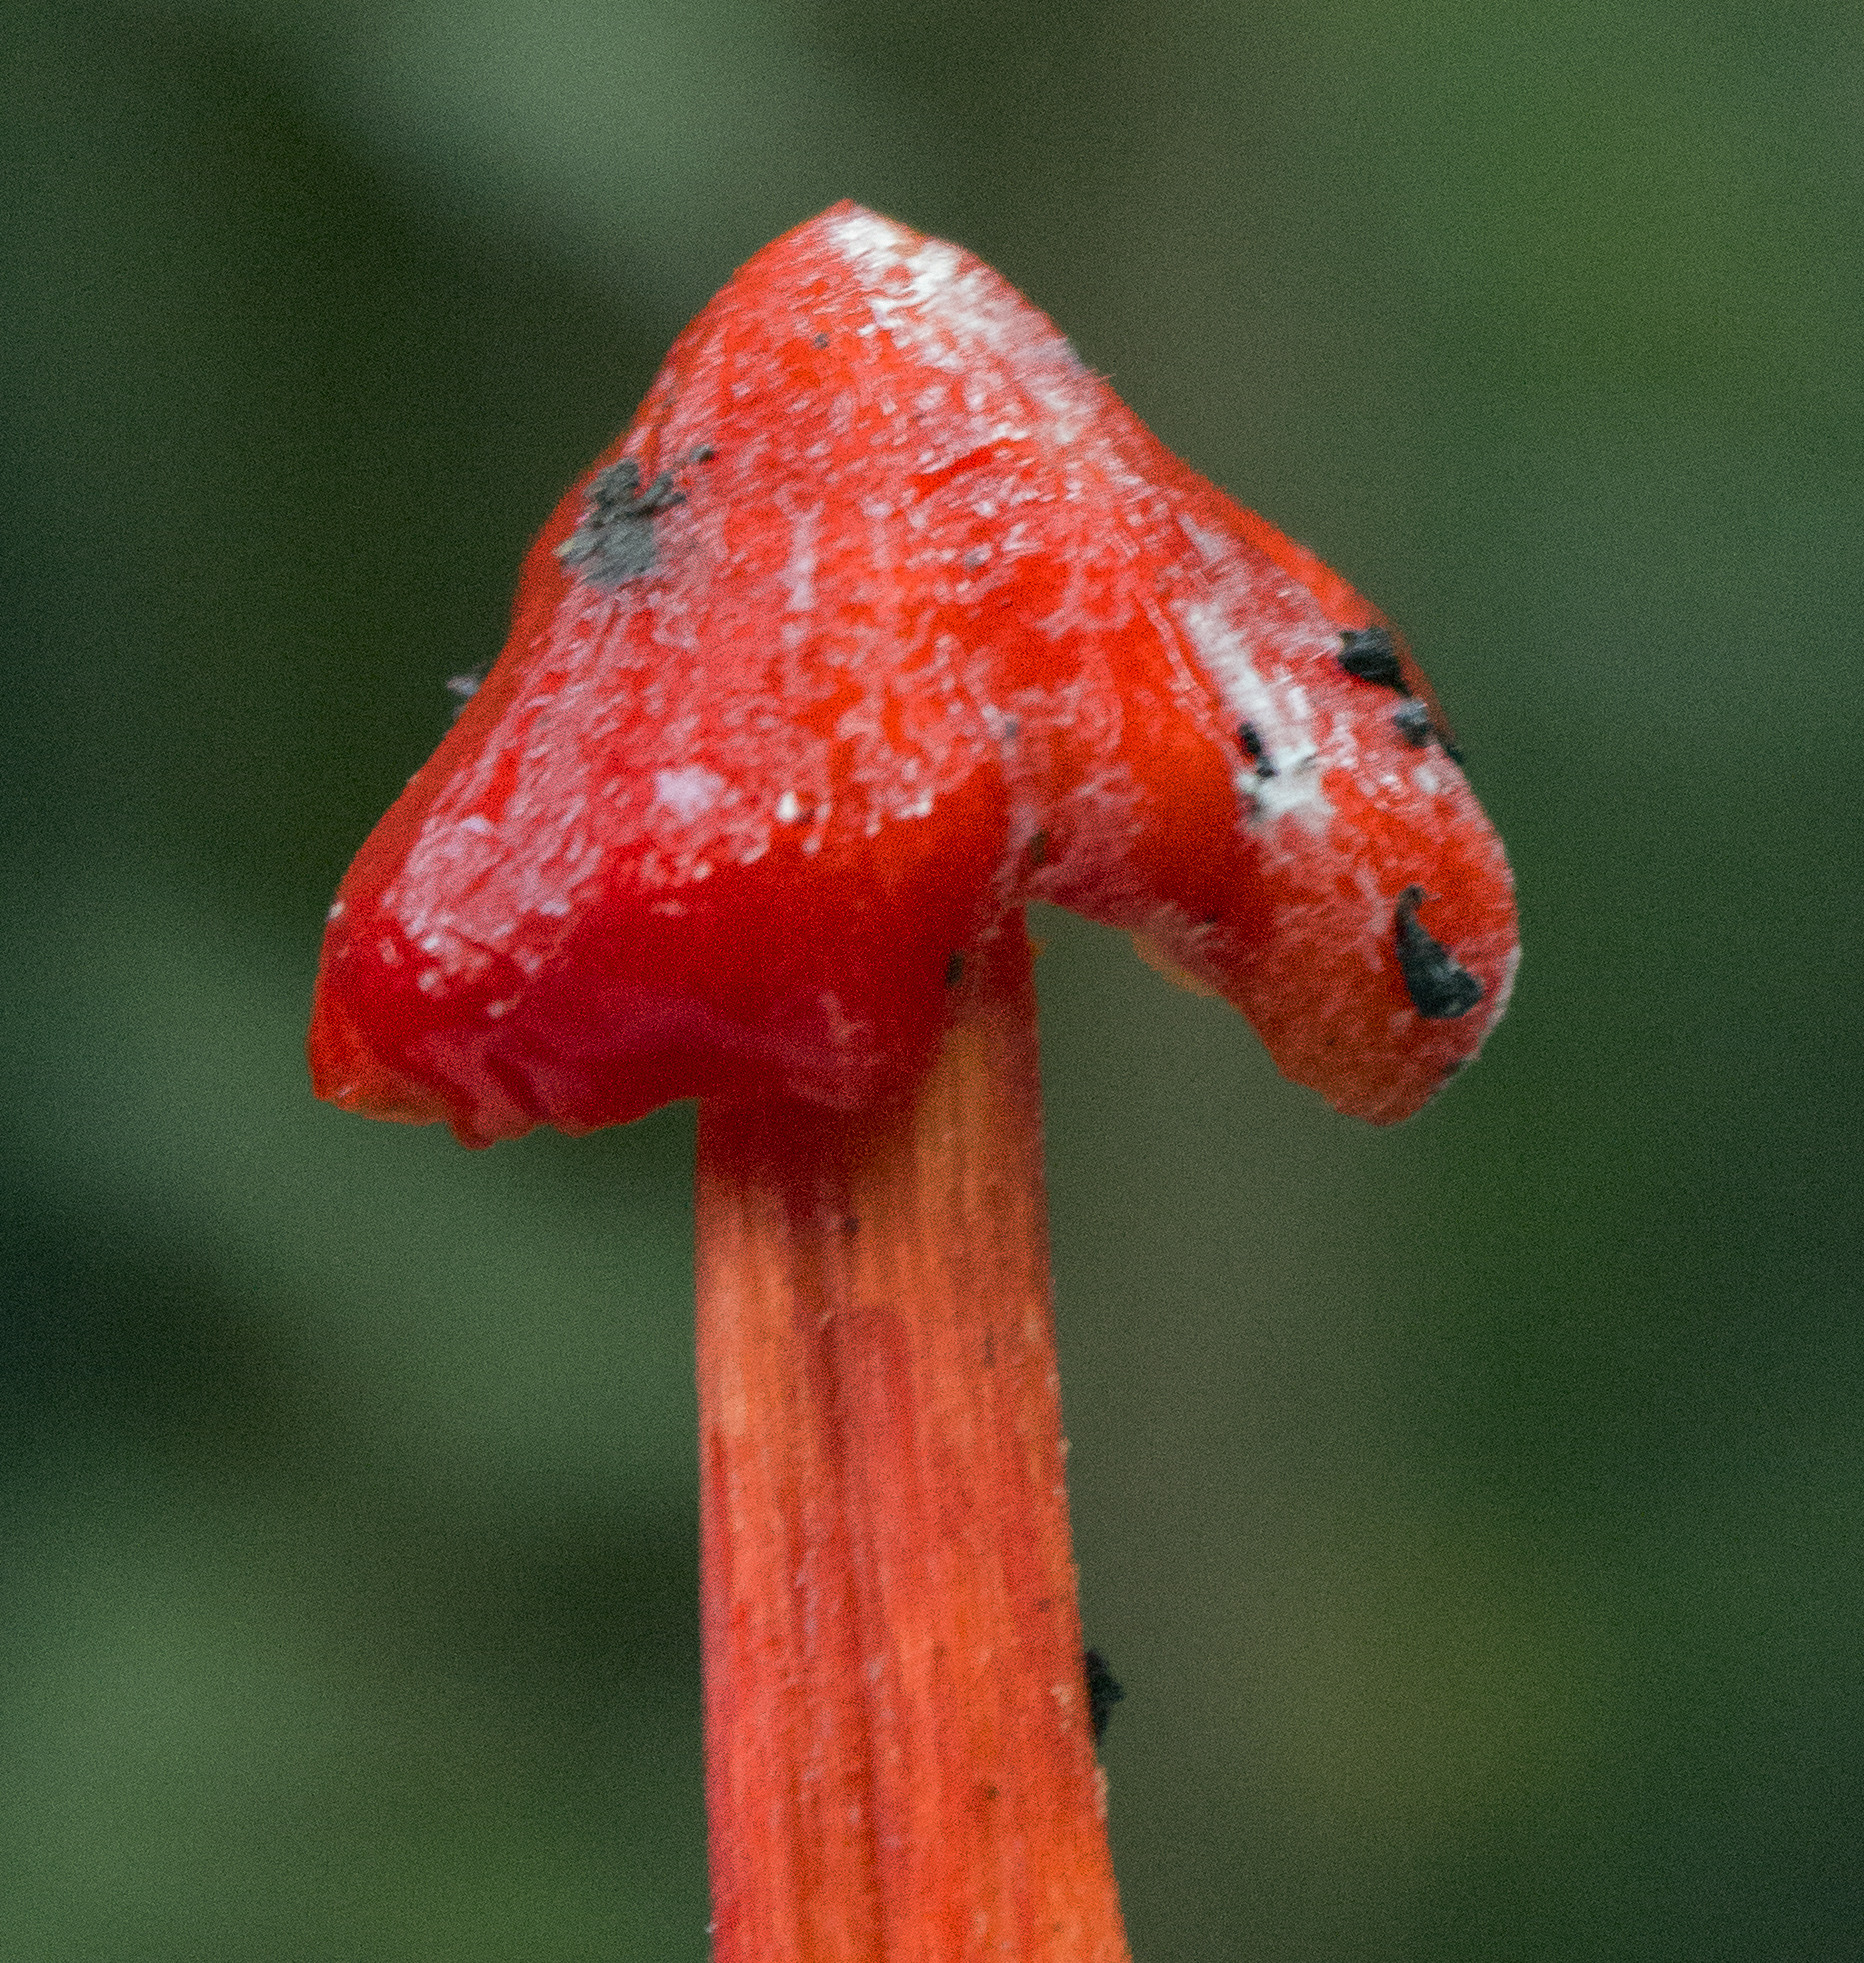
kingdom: Fungi
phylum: Basidiomycota
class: Agaricomycetes
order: Agaricales
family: Hygrophoraceae
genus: Hygrocybe
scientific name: Hygrocybe cuspidata
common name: Candy apple waxy cap
